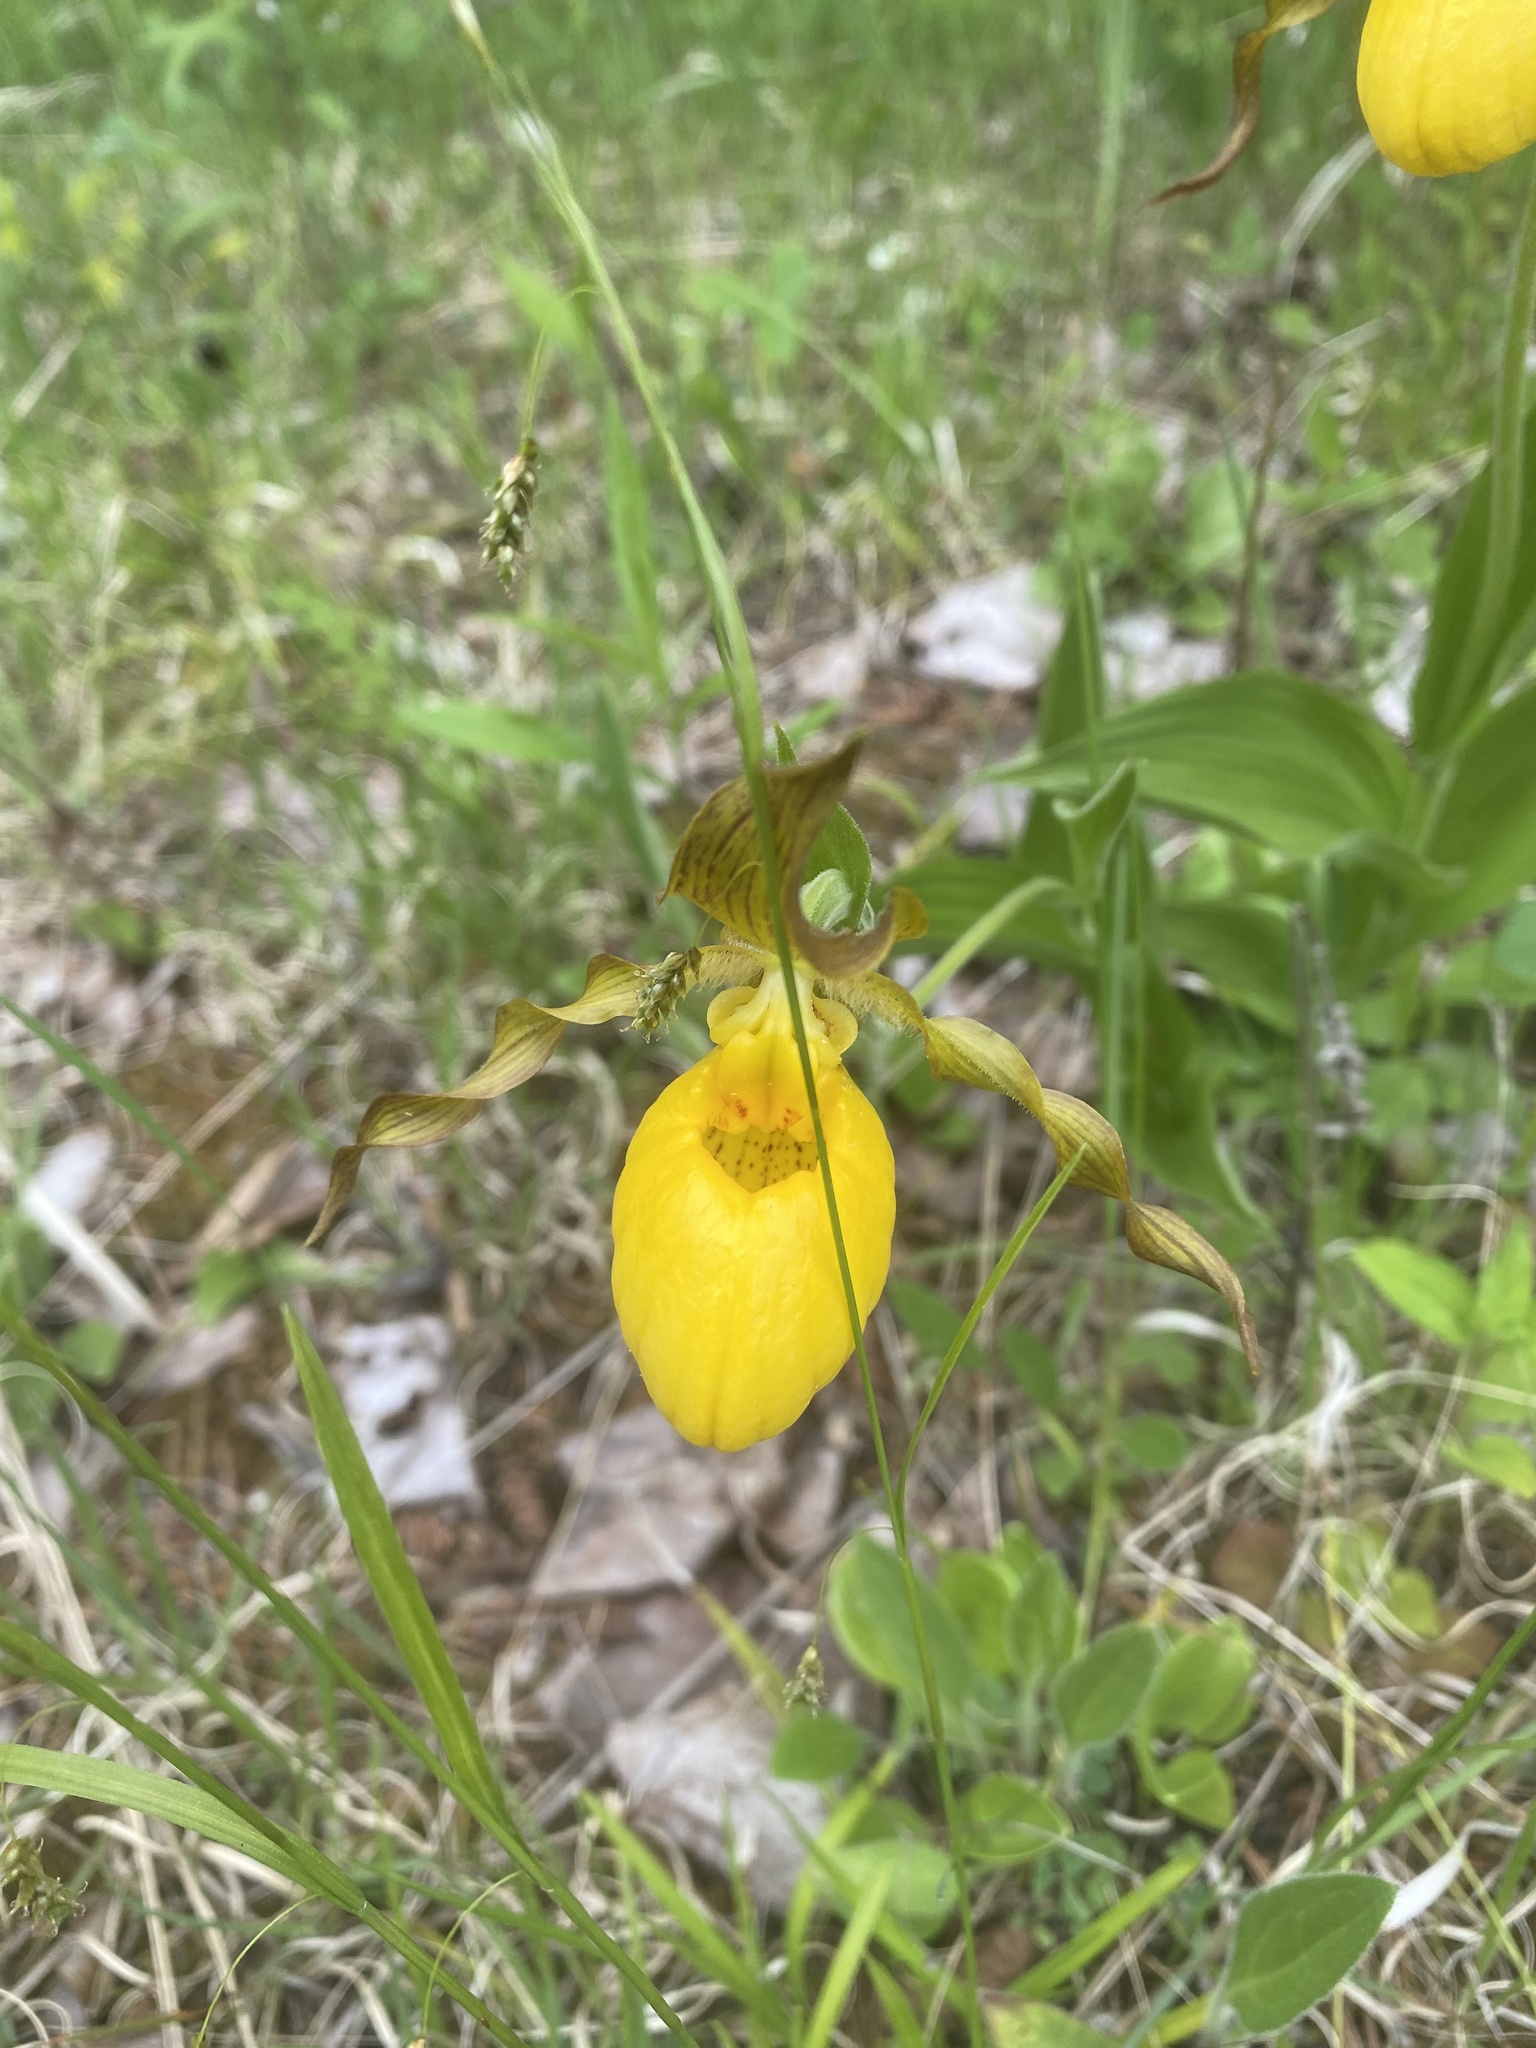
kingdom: Plantae
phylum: Tracheophyta
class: Liliopsida
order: Asparagales
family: Orchidaceae
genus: Cypripedium
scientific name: Cypripedium parviflorum
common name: American yellow lady's-slipper
